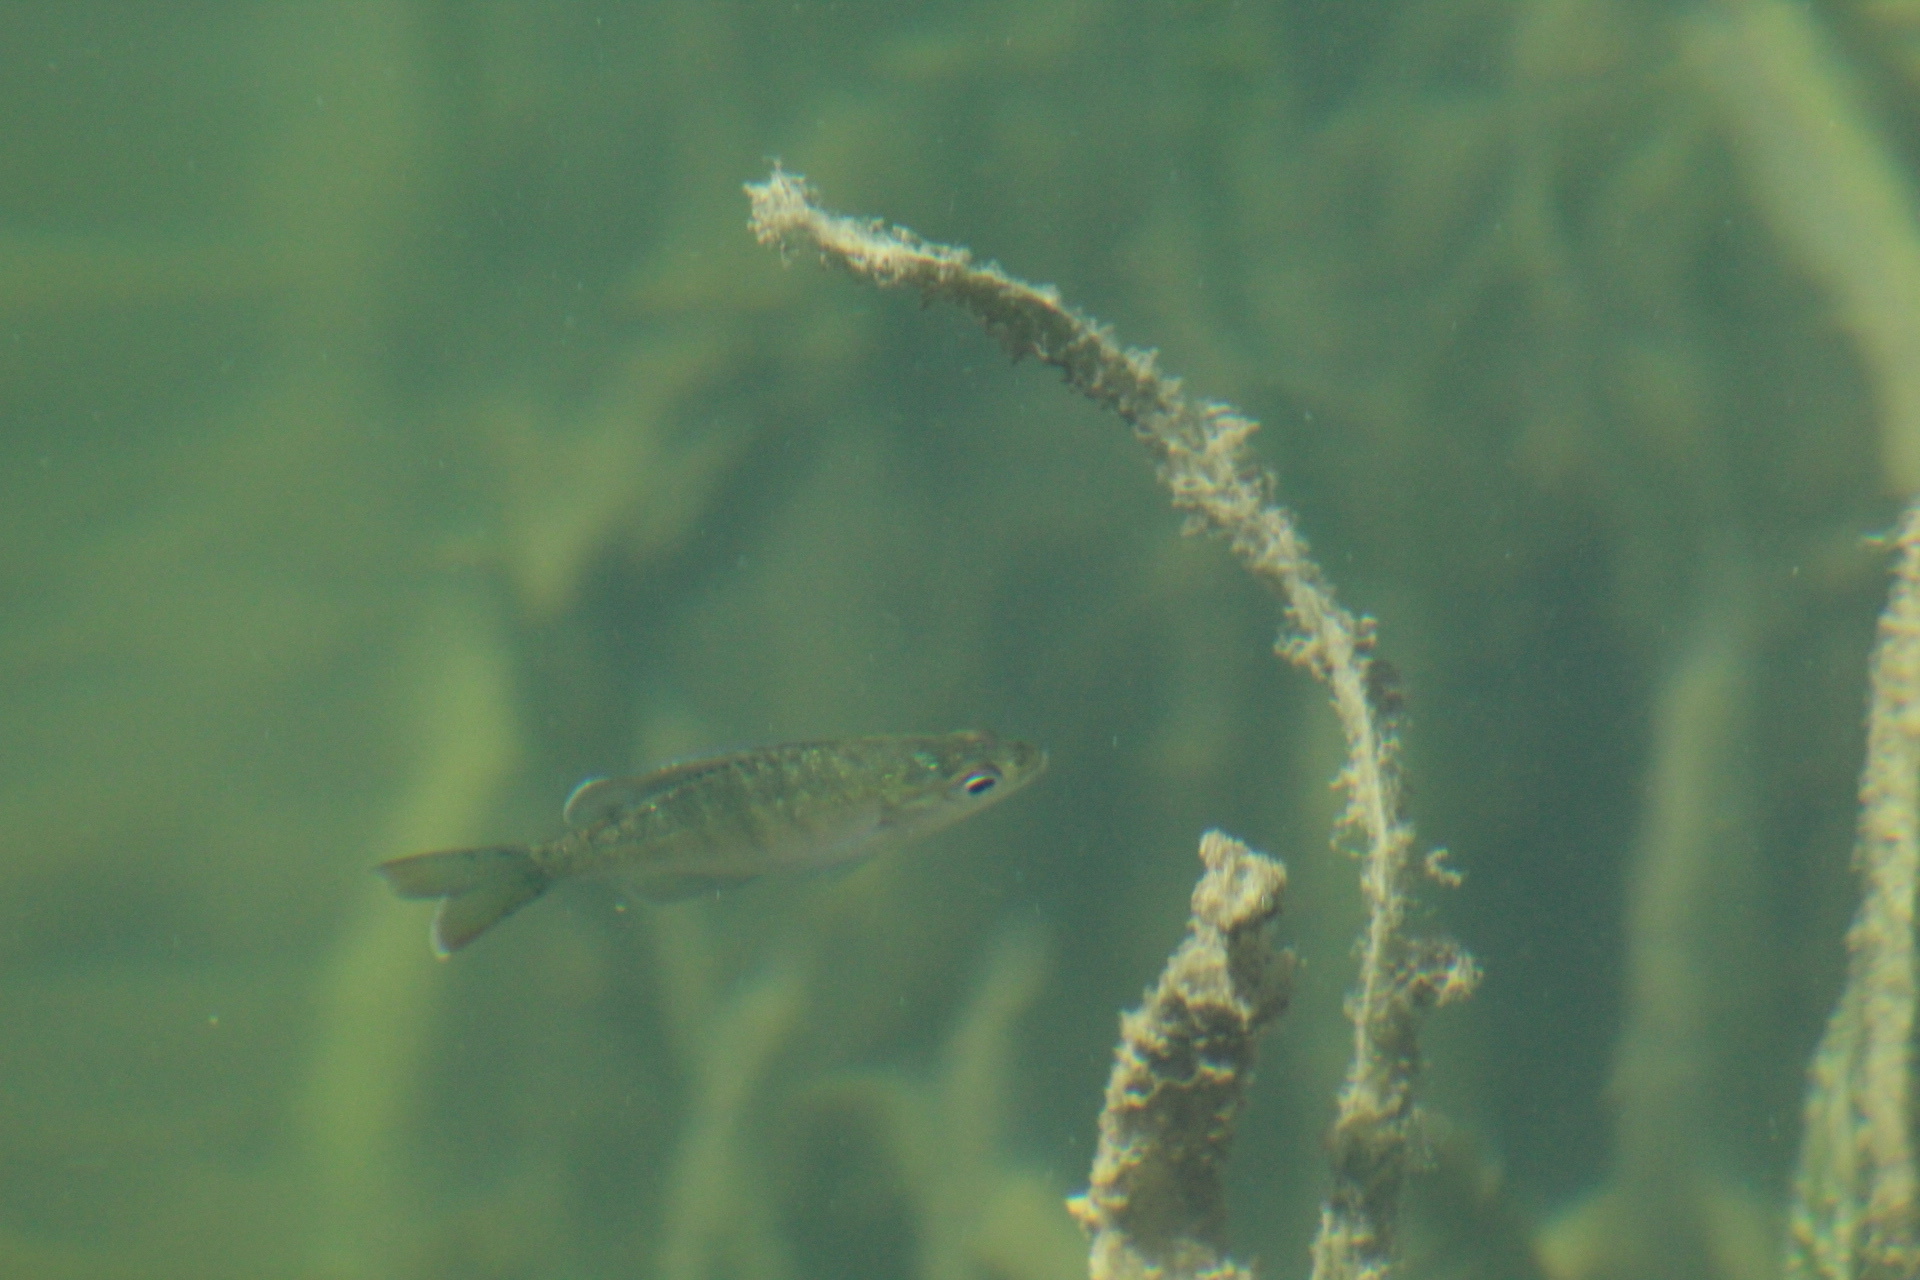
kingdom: Animalia
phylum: Chordata
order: Perciformes
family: Centrarchidae
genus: Lepomis
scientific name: Lepomis macrochirus
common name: Bluegill
